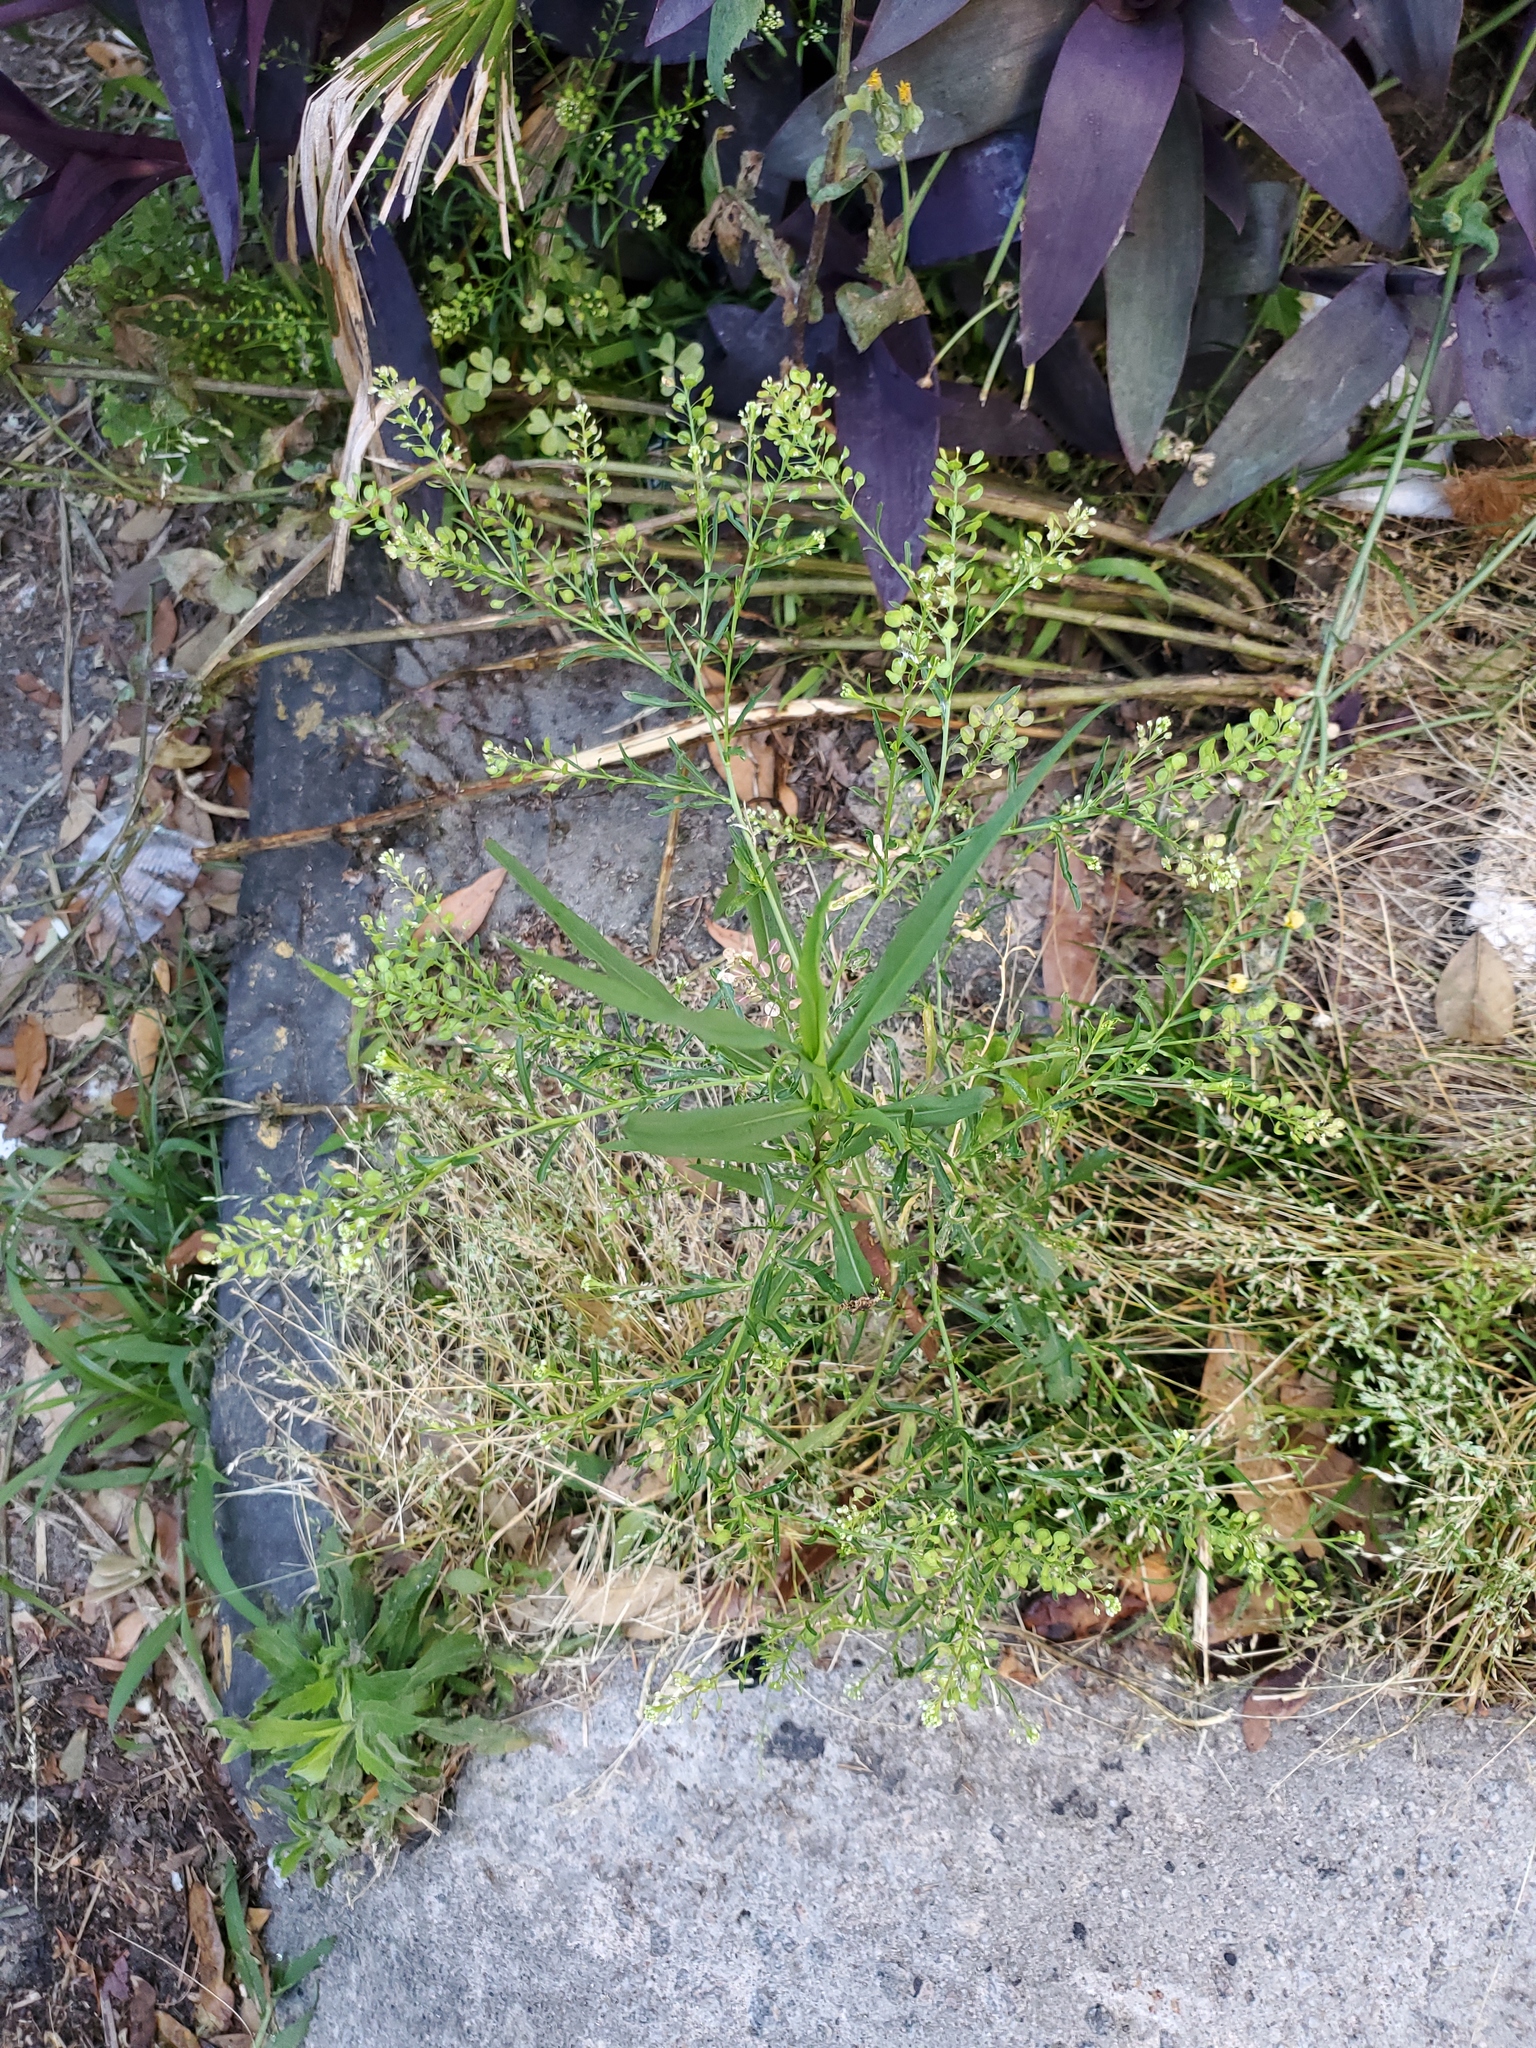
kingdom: Plantae
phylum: Tracheophyta
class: Magnoliopsida
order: Brassicales
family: Brassicaceae
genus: Lepidium
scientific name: Lepidium virginicum
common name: Least pepperwort
